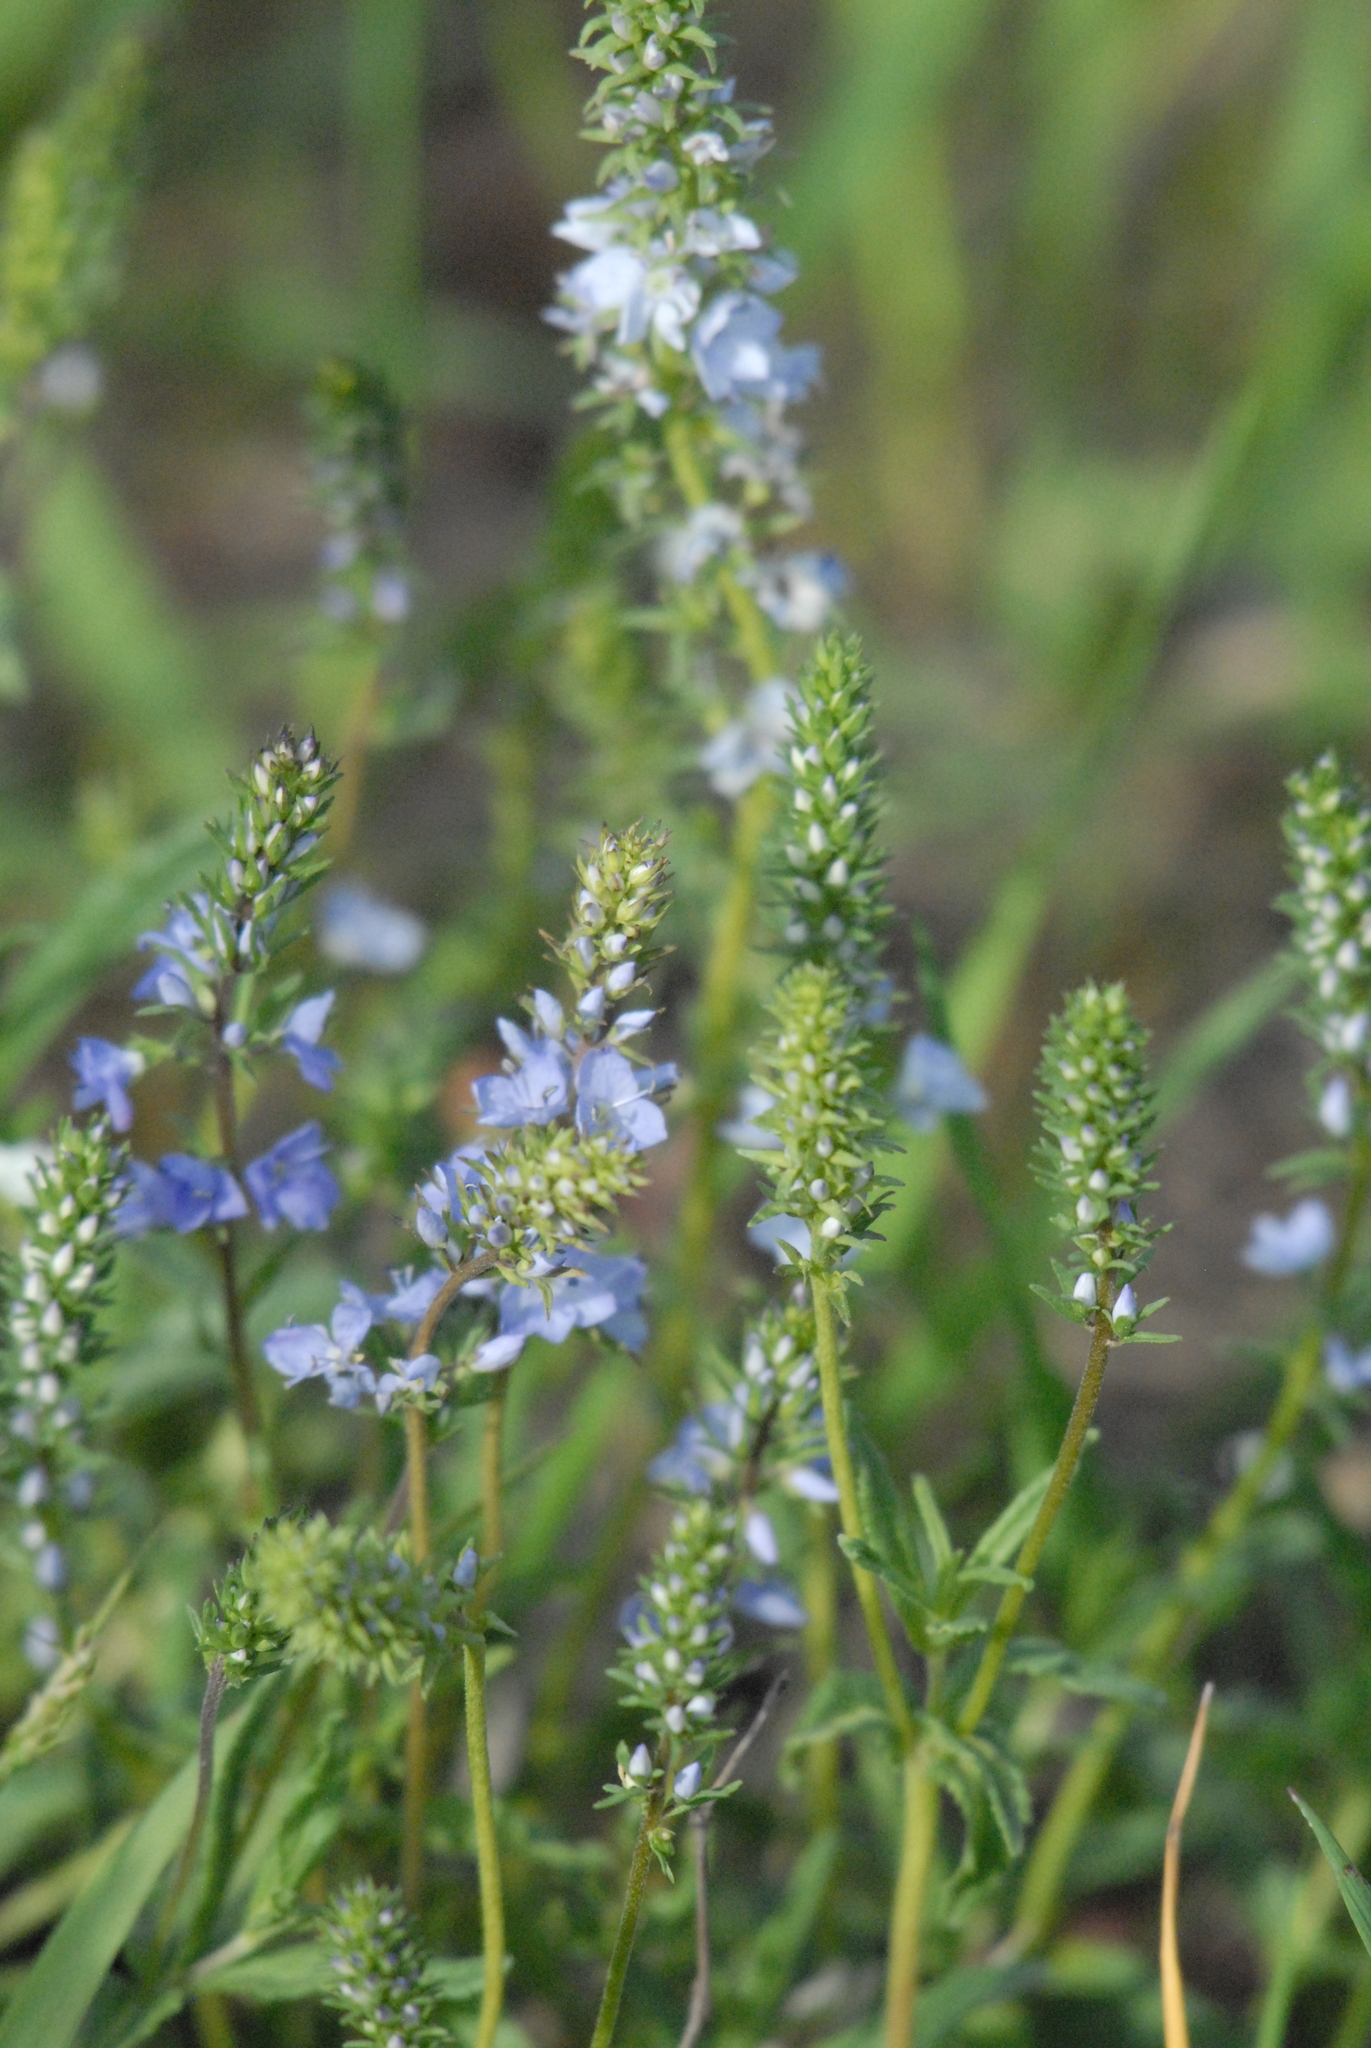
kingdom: Plantae
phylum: Tracheophyta
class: Magnoliopsida
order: Lamiales
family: Plantaginaceae
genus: Veronica
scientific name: Veronica prostrata
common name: Prostrate speedwell
